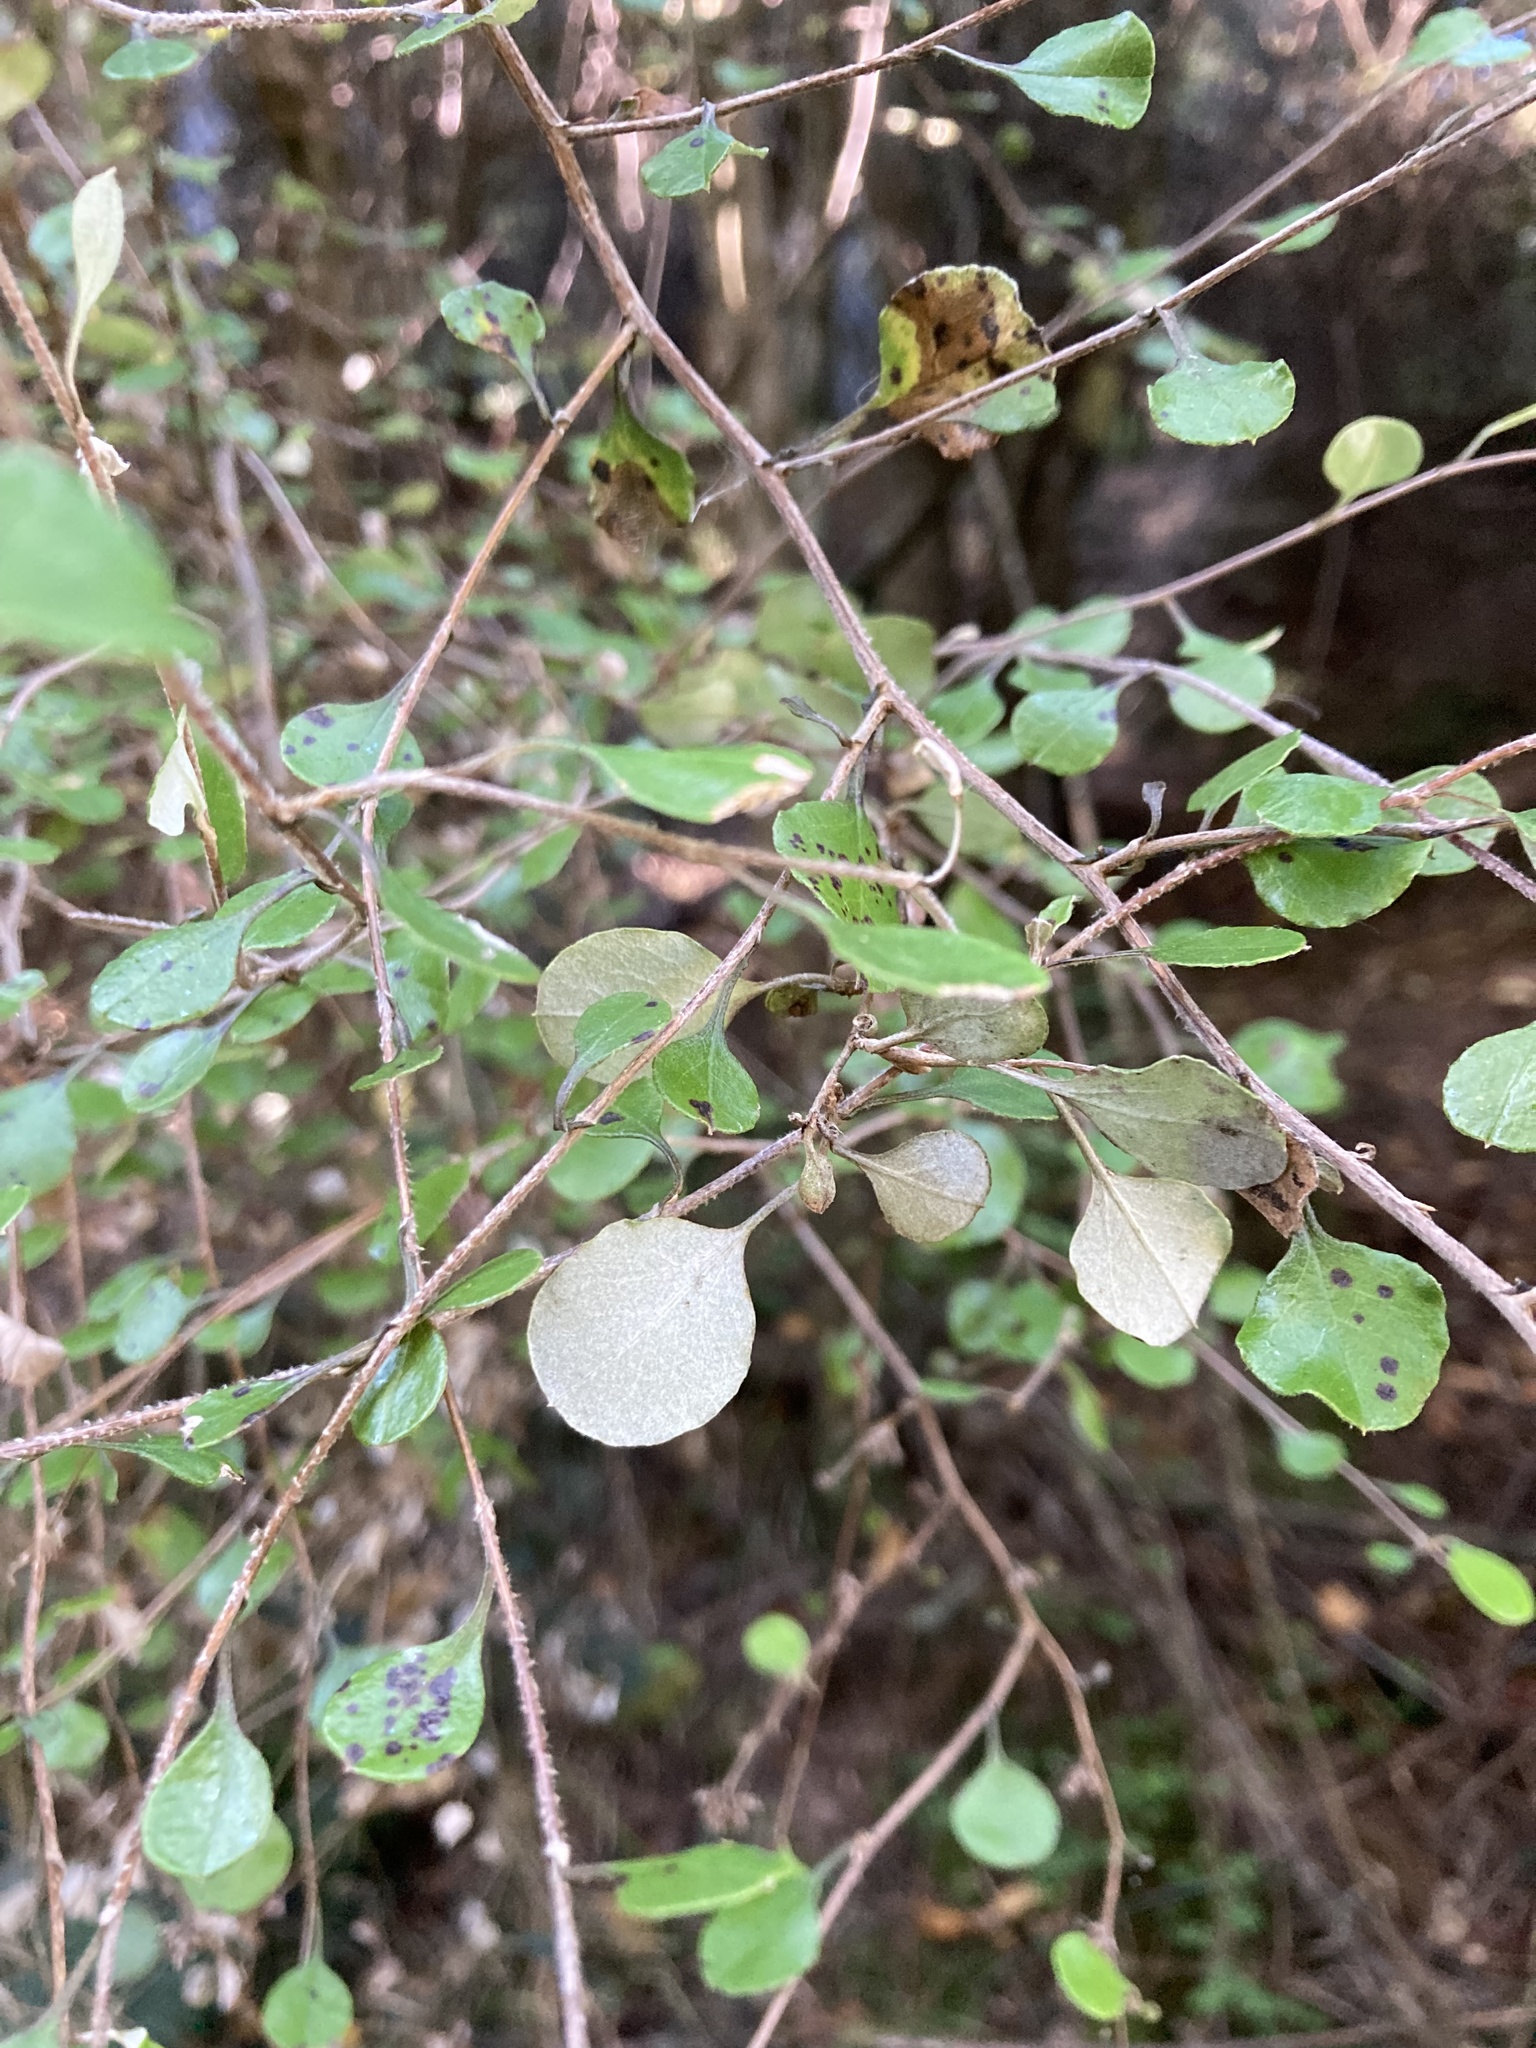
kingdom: Plantae
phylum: Tracheophyta
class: Magnoliopsida
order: Asterales
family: Asteraceae
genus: Ozothamnus
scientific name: Ozothamnus glomeratus
